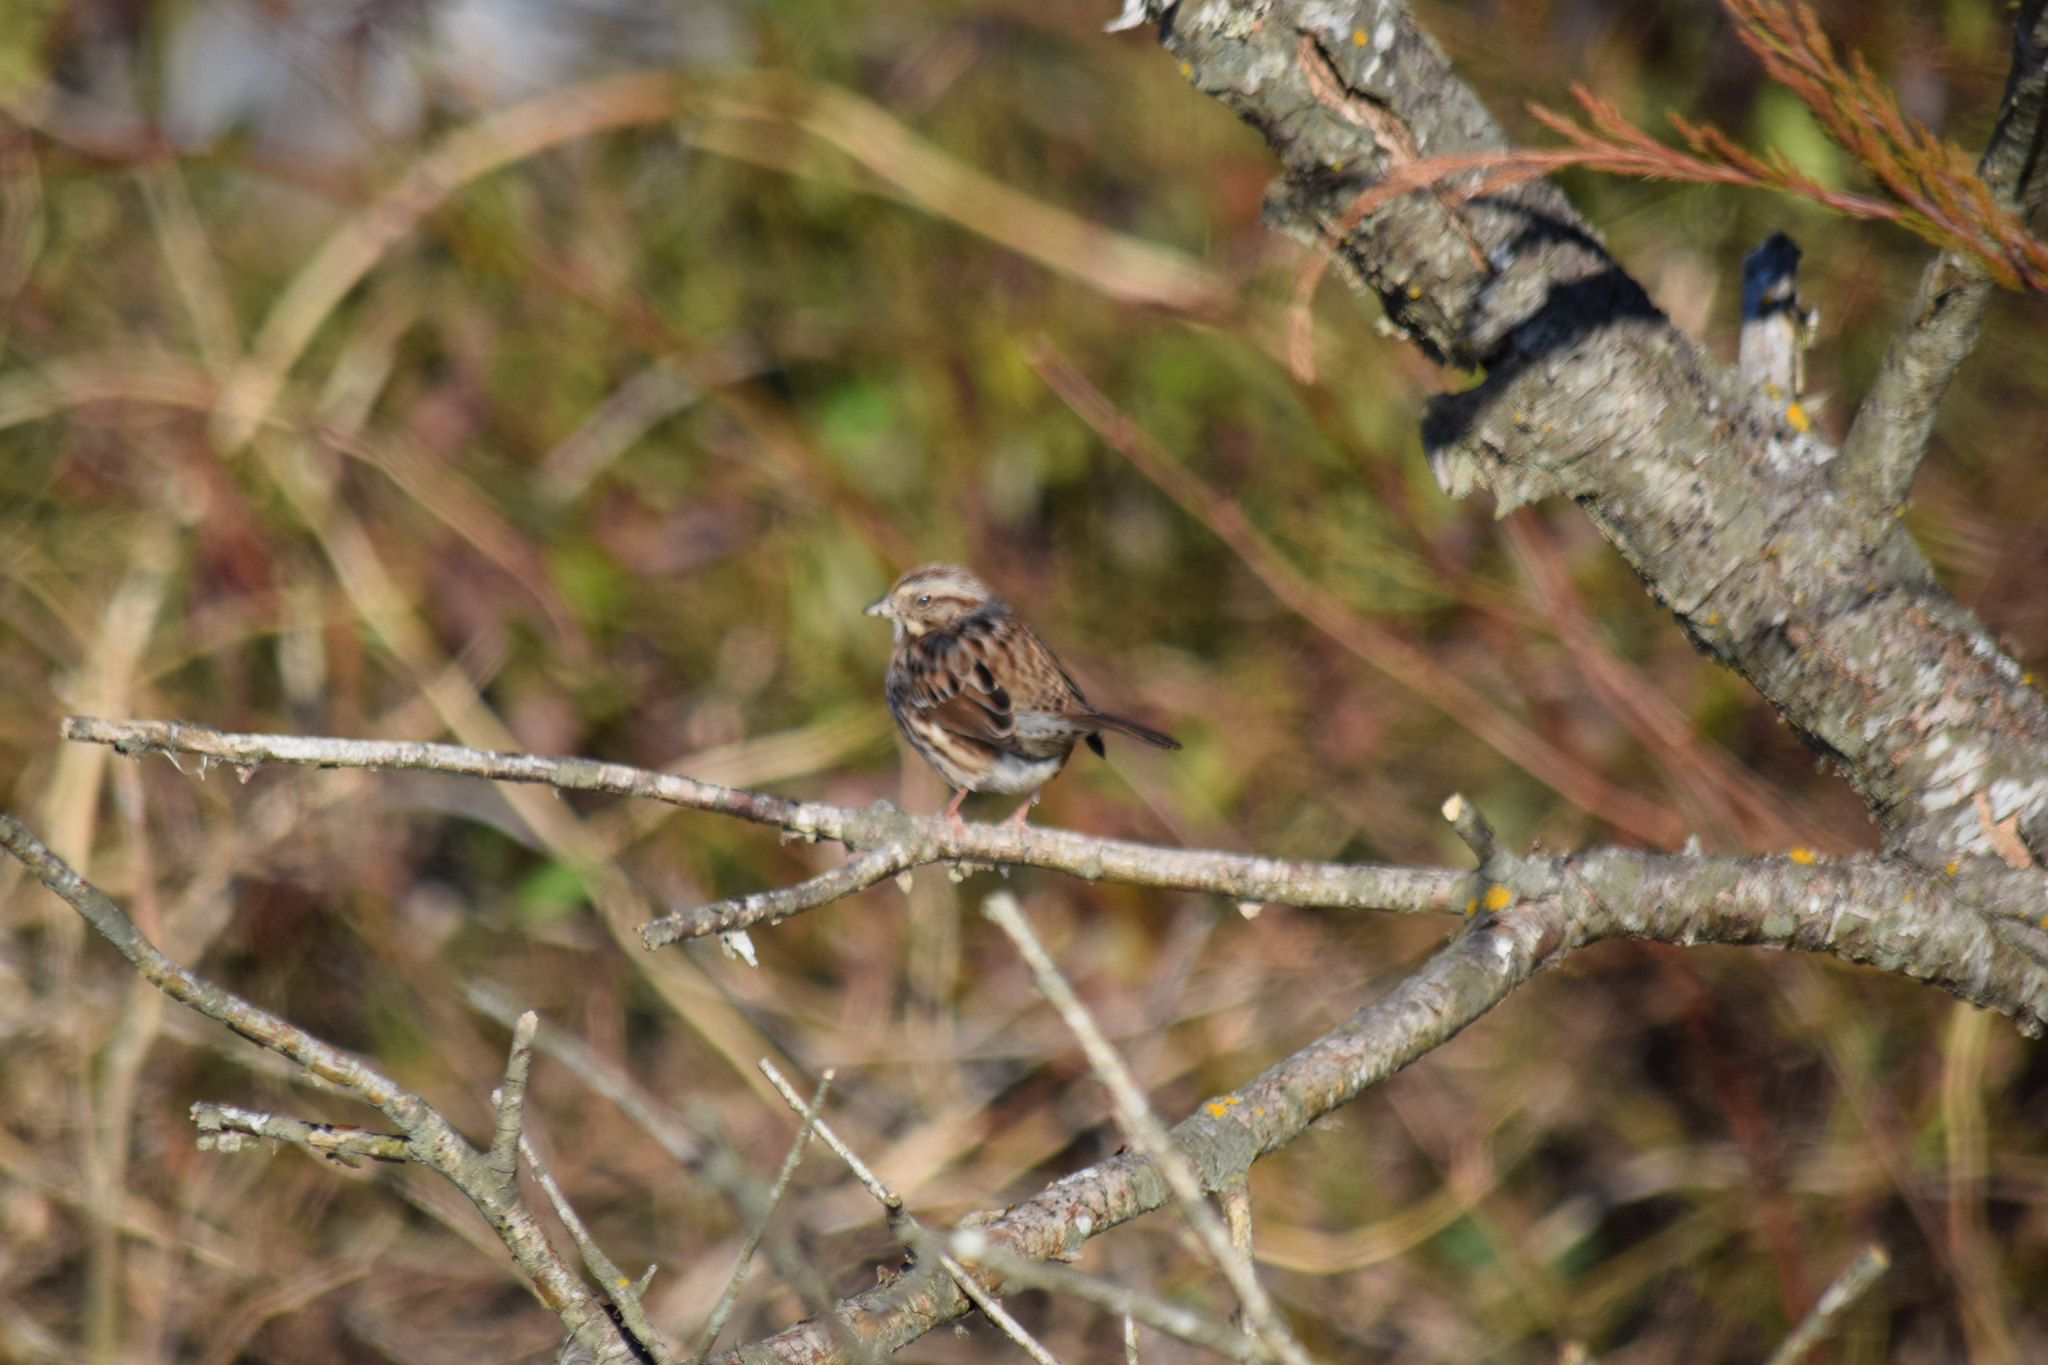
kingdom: Animalia
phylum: Chordata
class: Aves
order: Passeriformes
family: Passerellidae
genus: Melospiza
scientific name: Melospiza melodia
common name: Song sparrow
